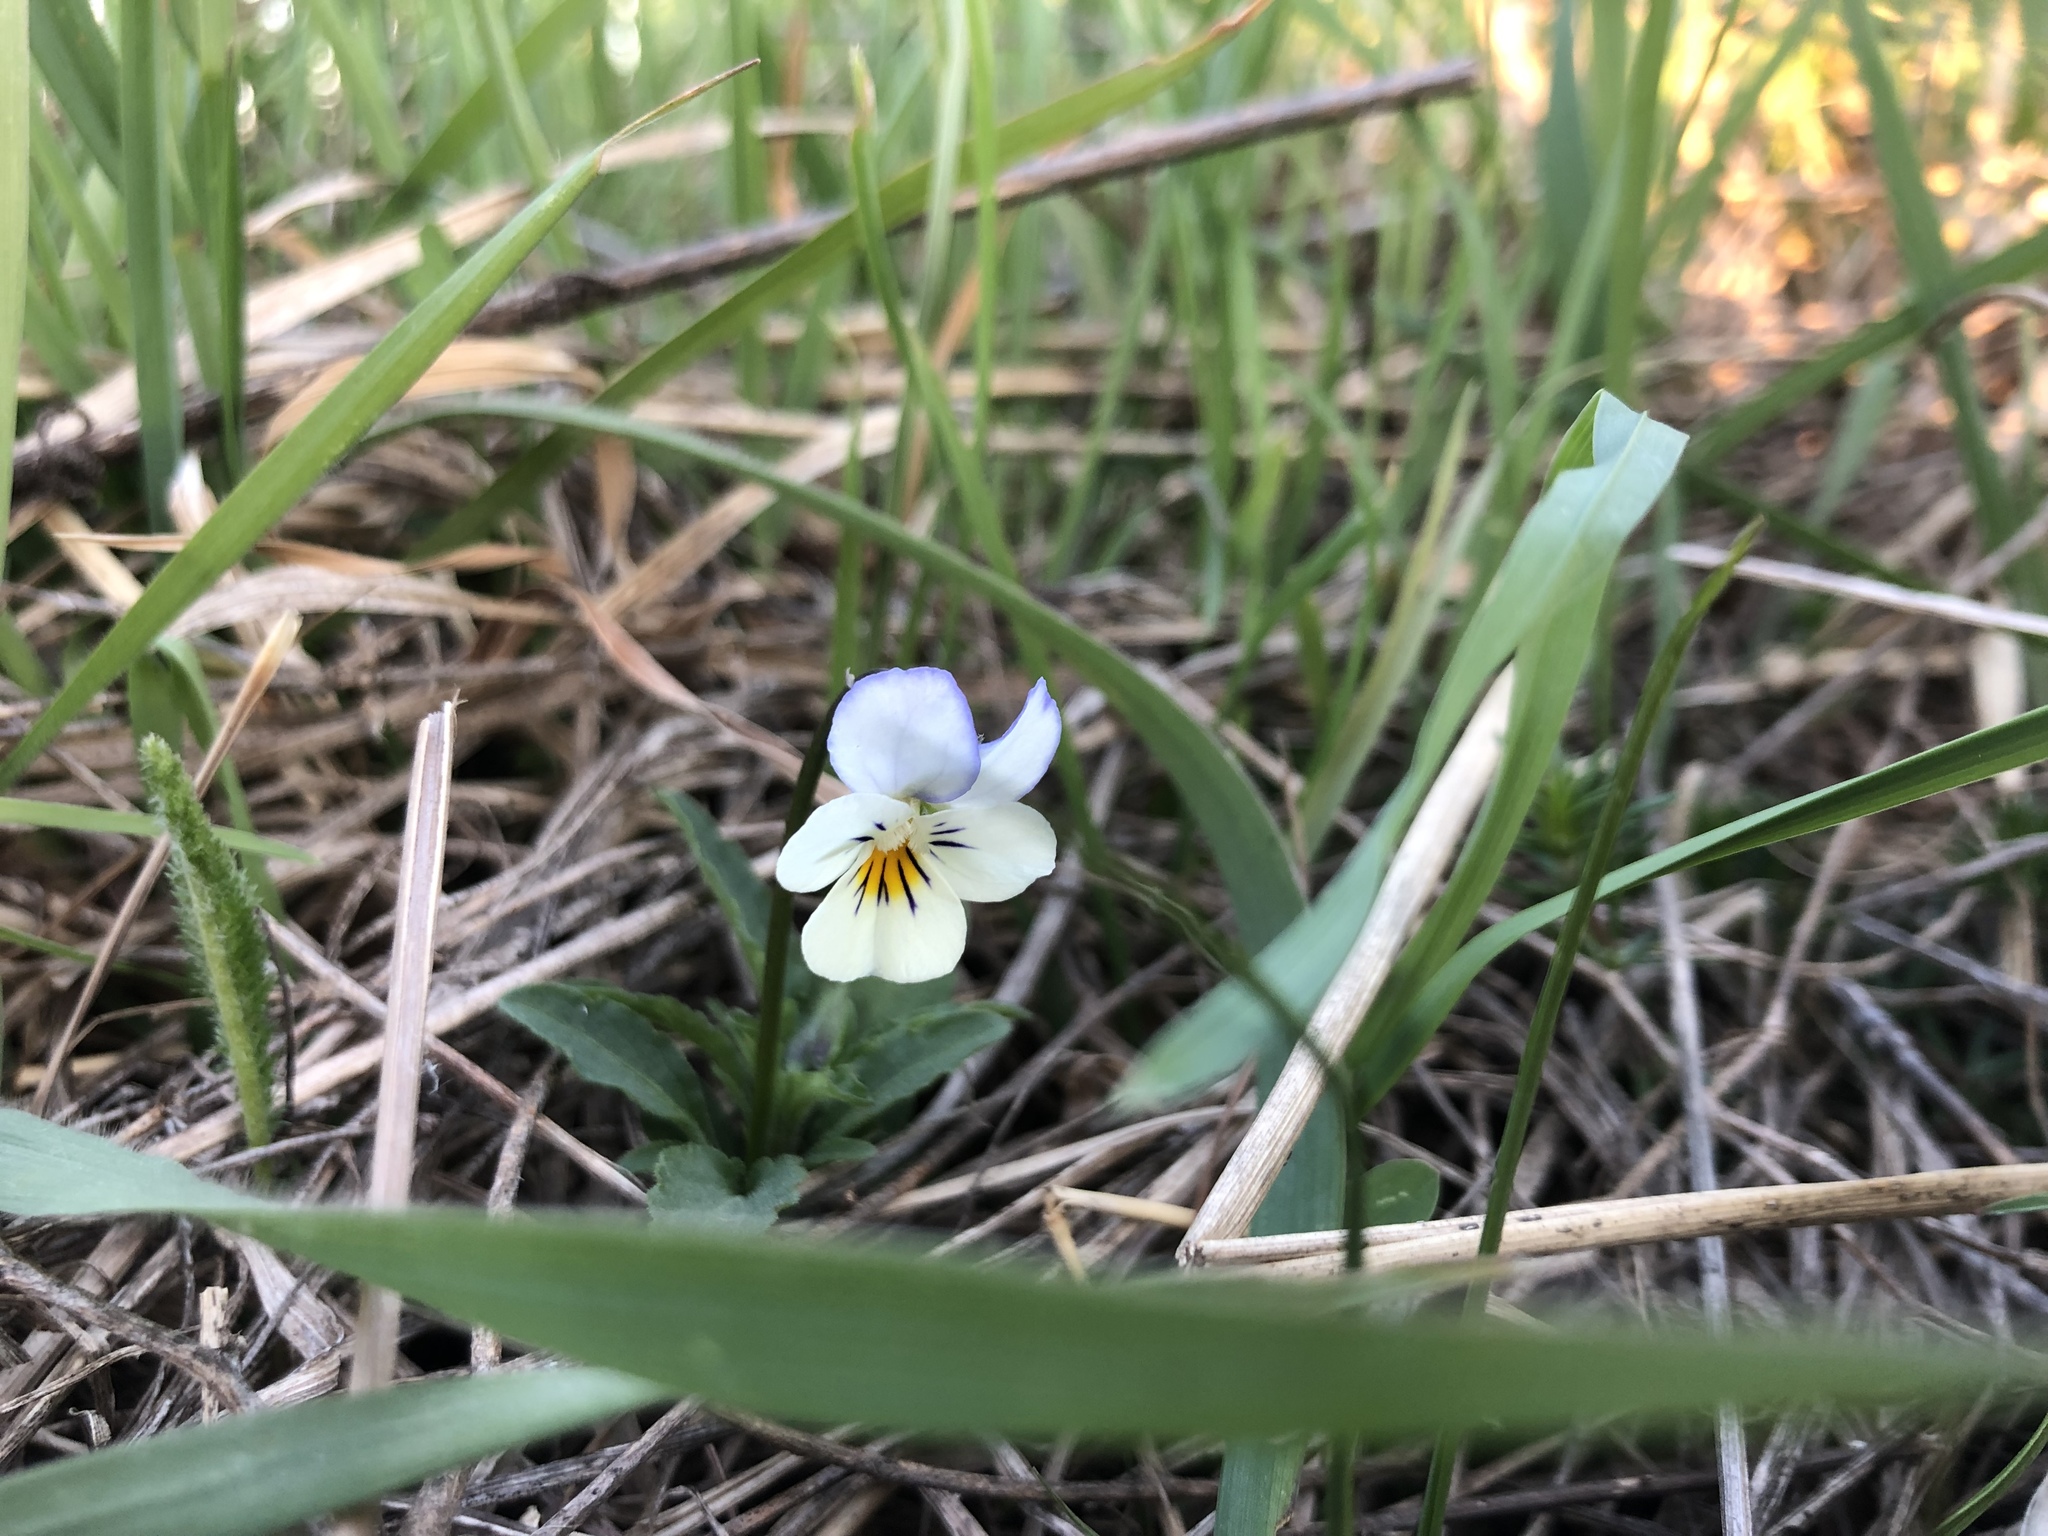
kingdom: Plantae
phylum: Tracheophyta
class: Magnoliopsida
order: Malpighiales
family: Violaceae
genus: Viola
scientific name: Viola arvensis
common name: Field pansy
